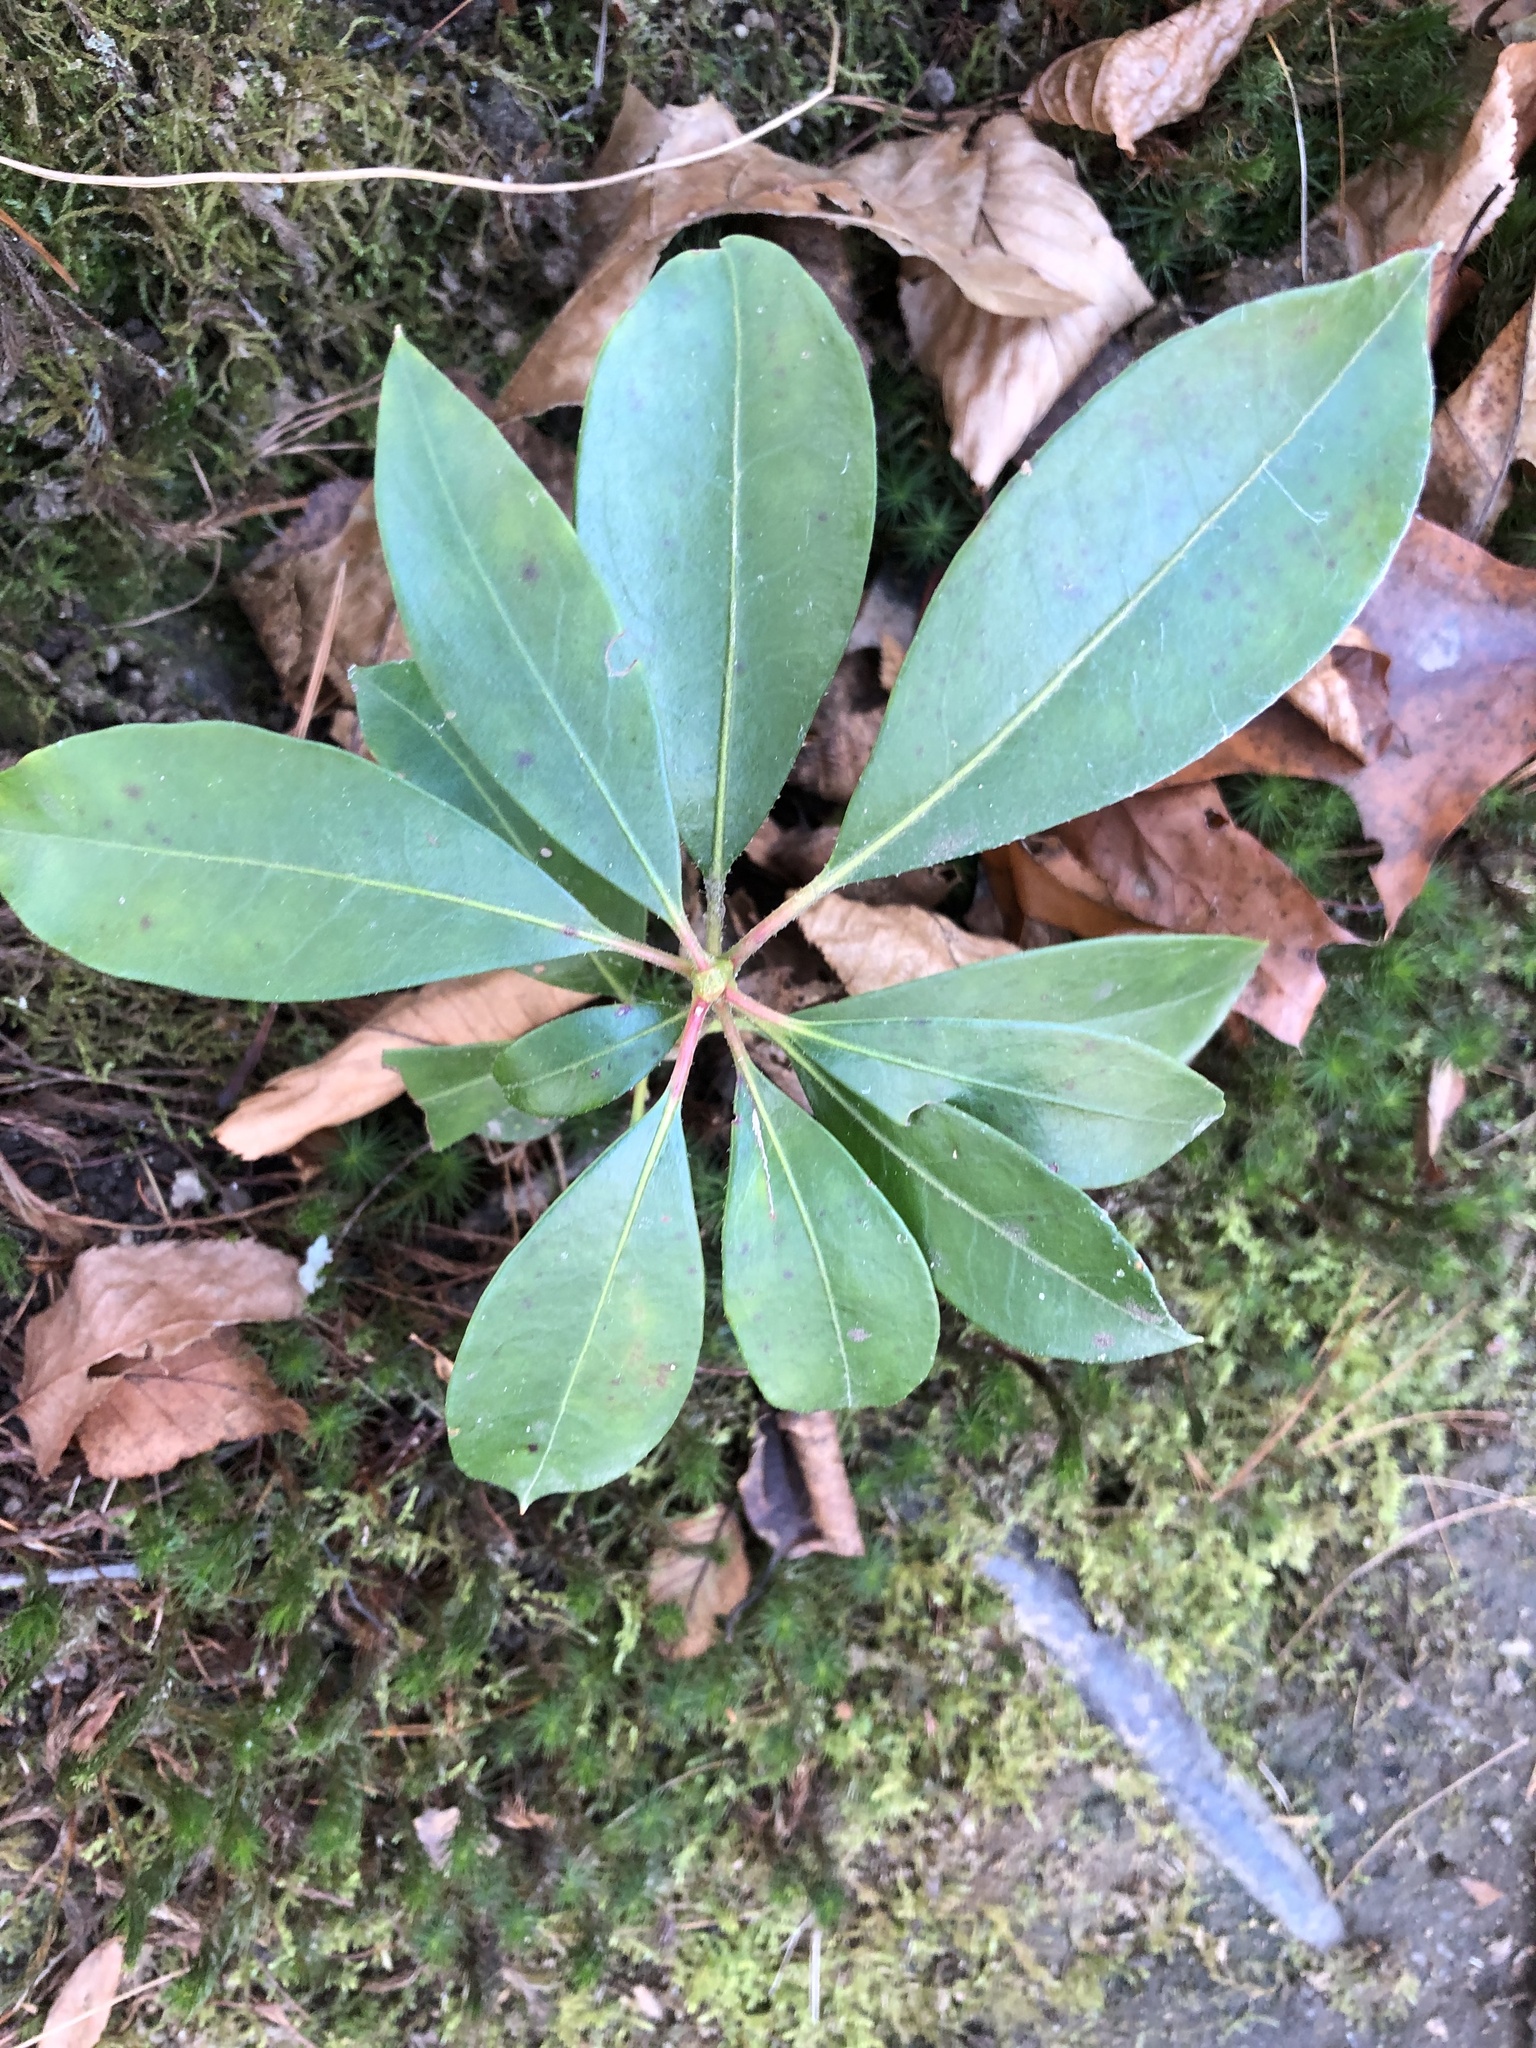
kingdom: Plantae
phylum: Tracheophyta
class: Magnoliopsida
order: Ericales
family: Ericaceae
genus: Kalmia
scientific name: Kalmia latifolia
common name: Mountain-laurel
